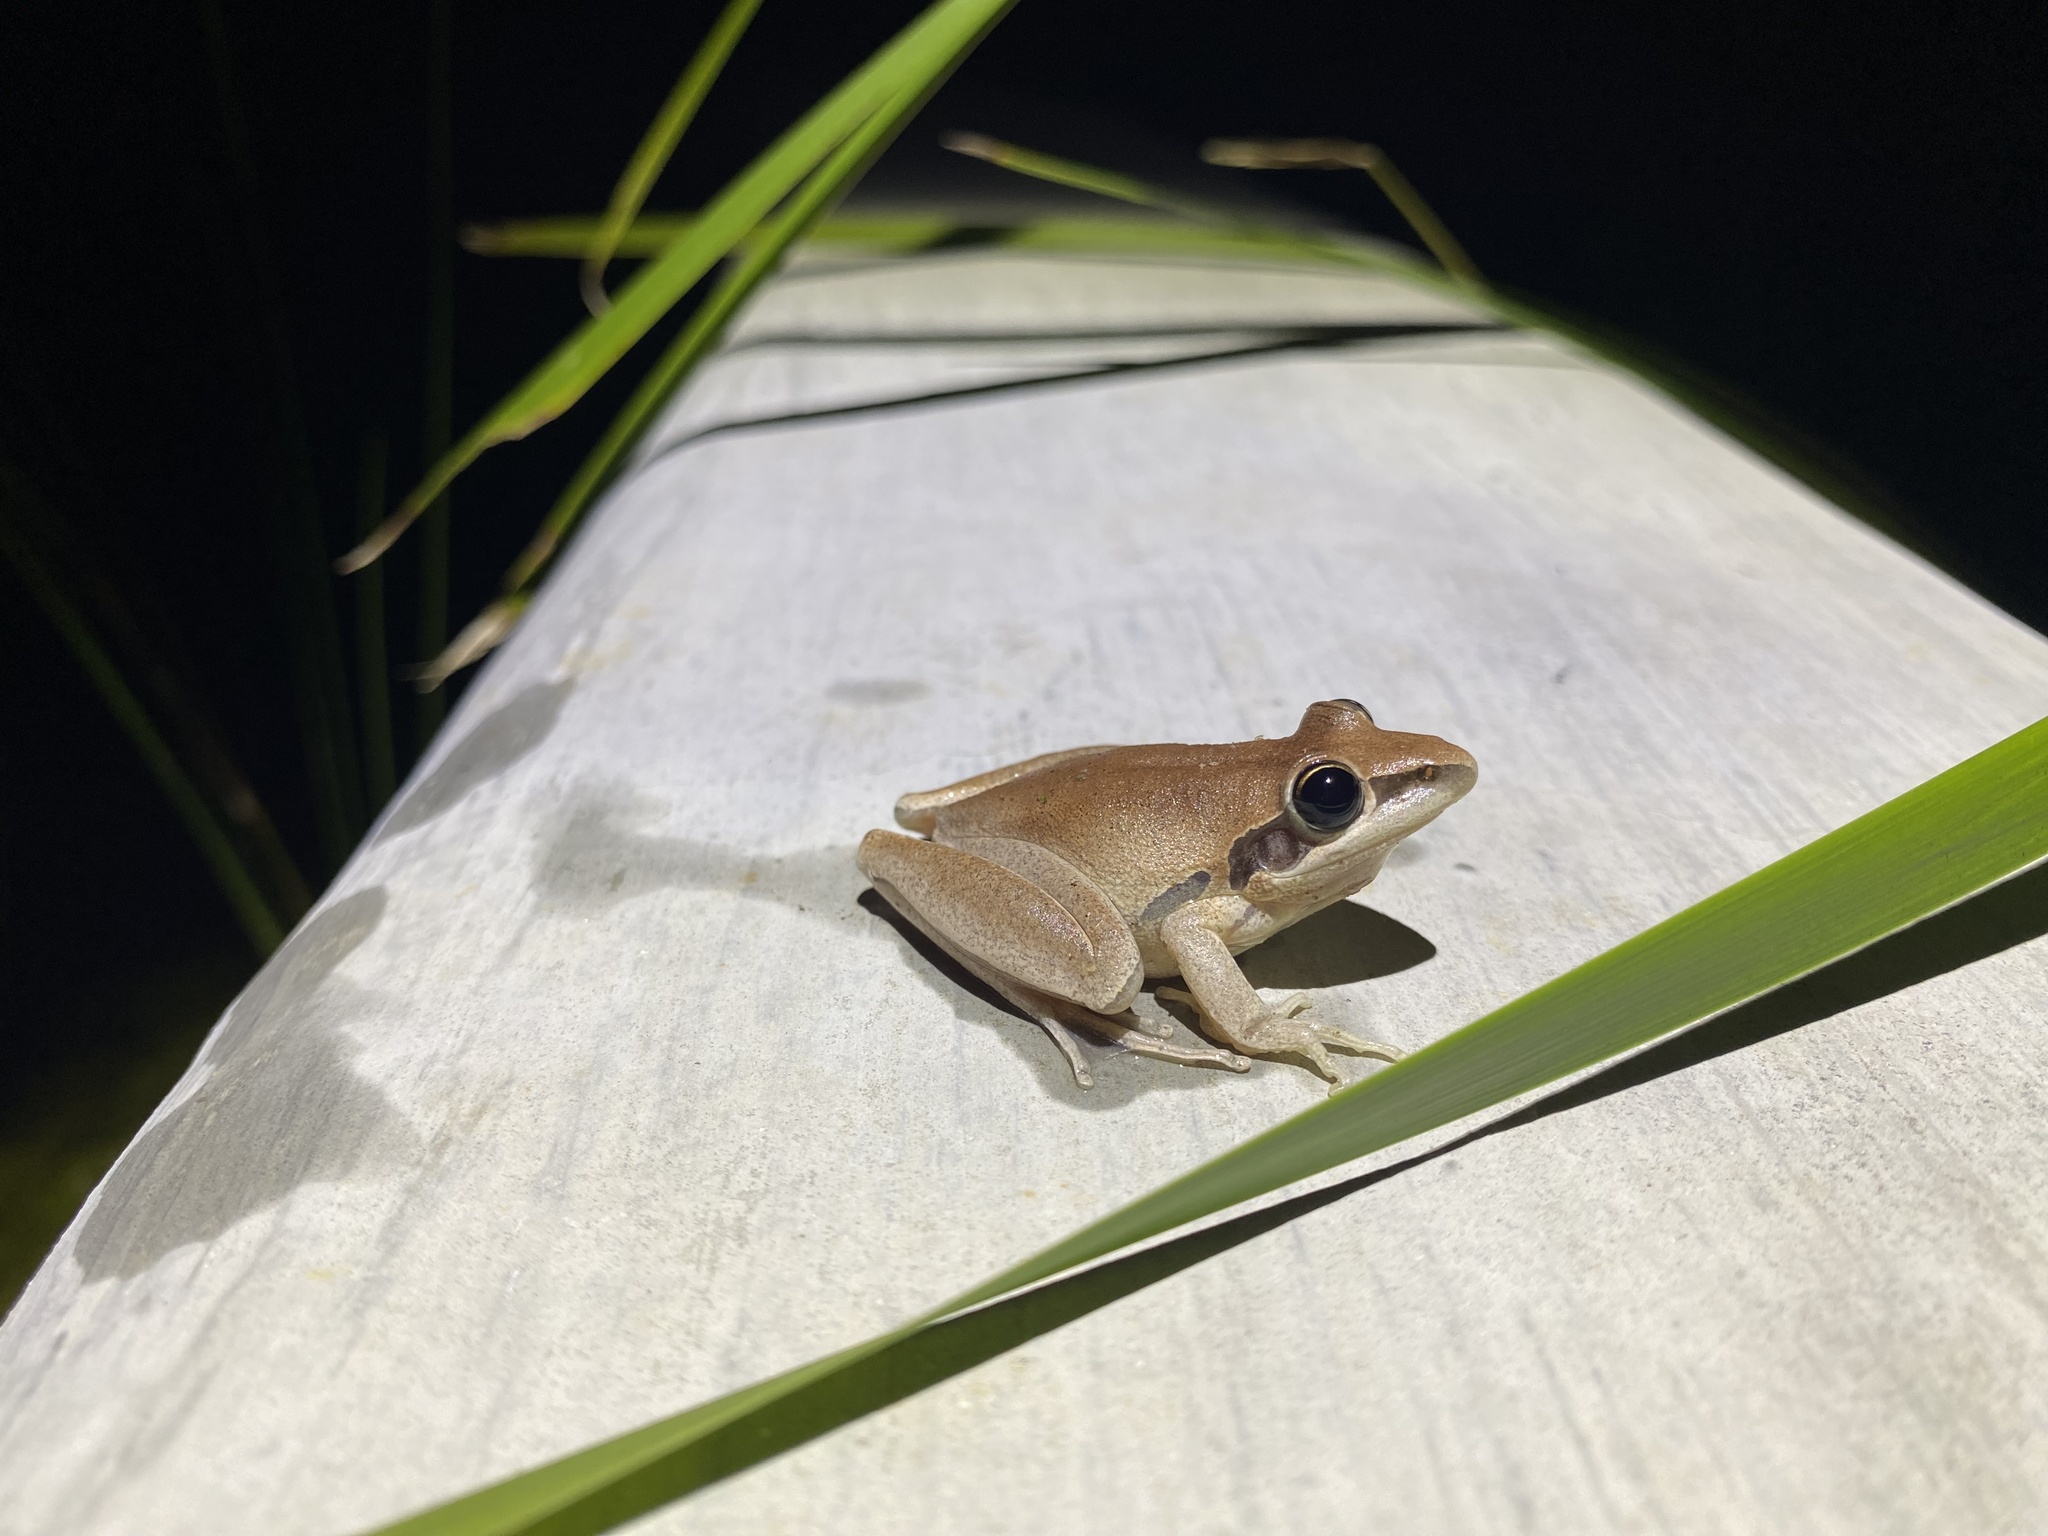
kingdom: Animalia
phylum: Chordata
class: Amphibia
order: Anura
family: Pelodryadidae
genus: Litoria
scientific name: Litoria nigrofrenata
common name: Bridle frog
